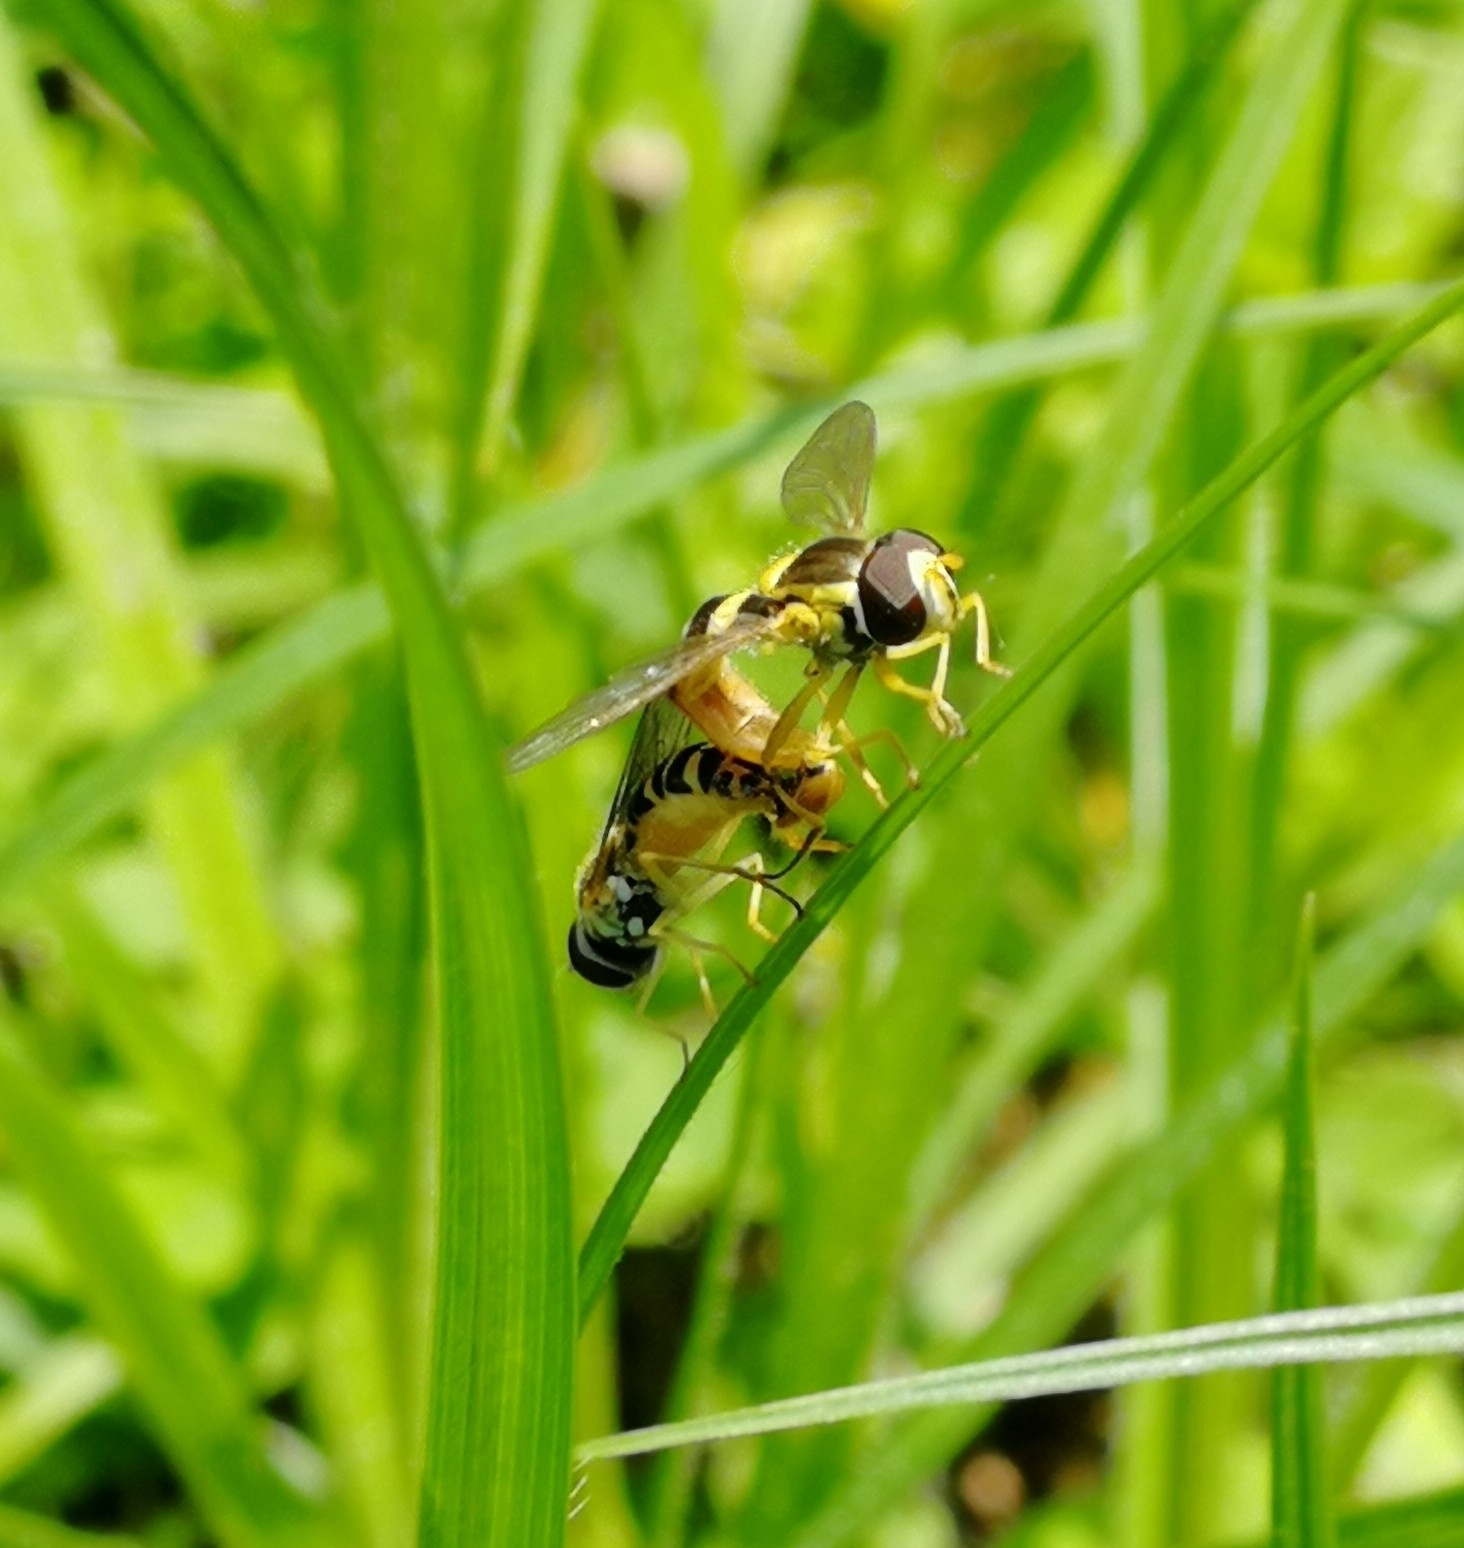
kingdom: Animalia
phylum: Arthropoda
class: Insecta
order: Diptera
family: Syrphidae
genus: Sphaerophoria
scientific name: Sphaerophoria scripta
